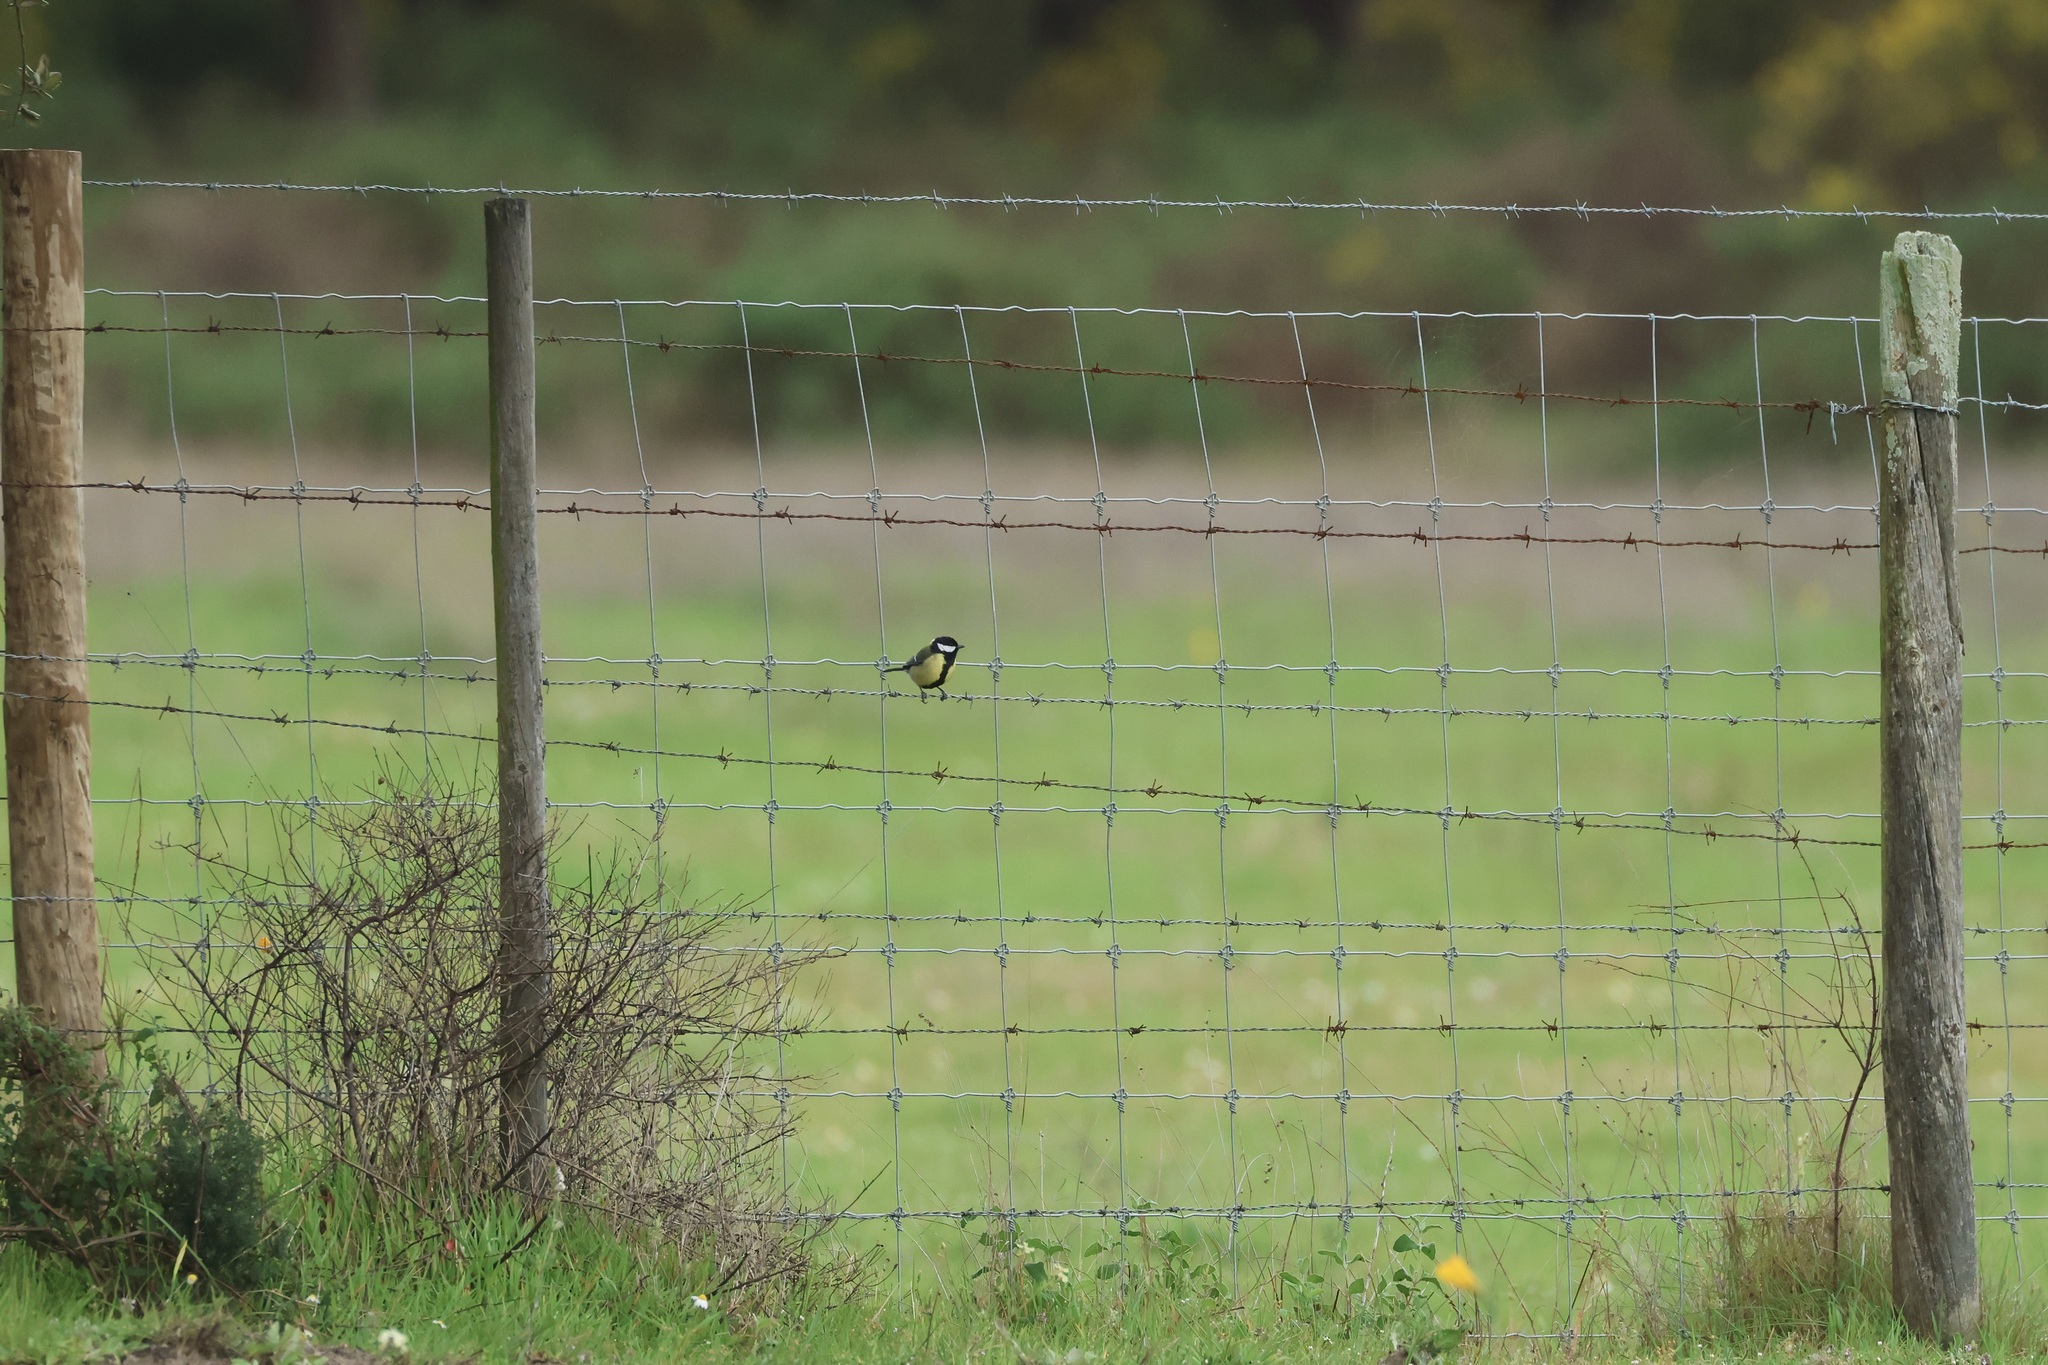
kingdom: Animalia
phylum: Chordata
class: Aves
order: Passeriformes
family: Paridae
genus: Parus
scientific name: Parus major
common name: Great tit
